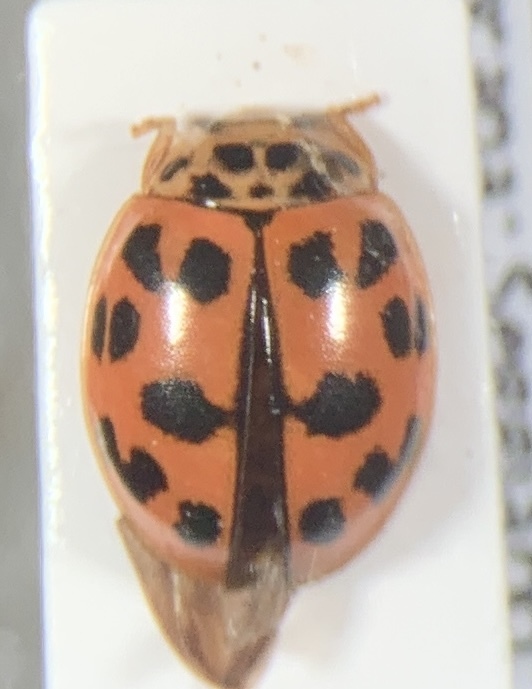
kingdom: Animalia
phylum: Arthropoda
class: Insecta
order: Coleoptera
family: Coccinellidae
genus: Oenopia
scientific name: Oenopia conglobata
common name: Ladybird beetle
